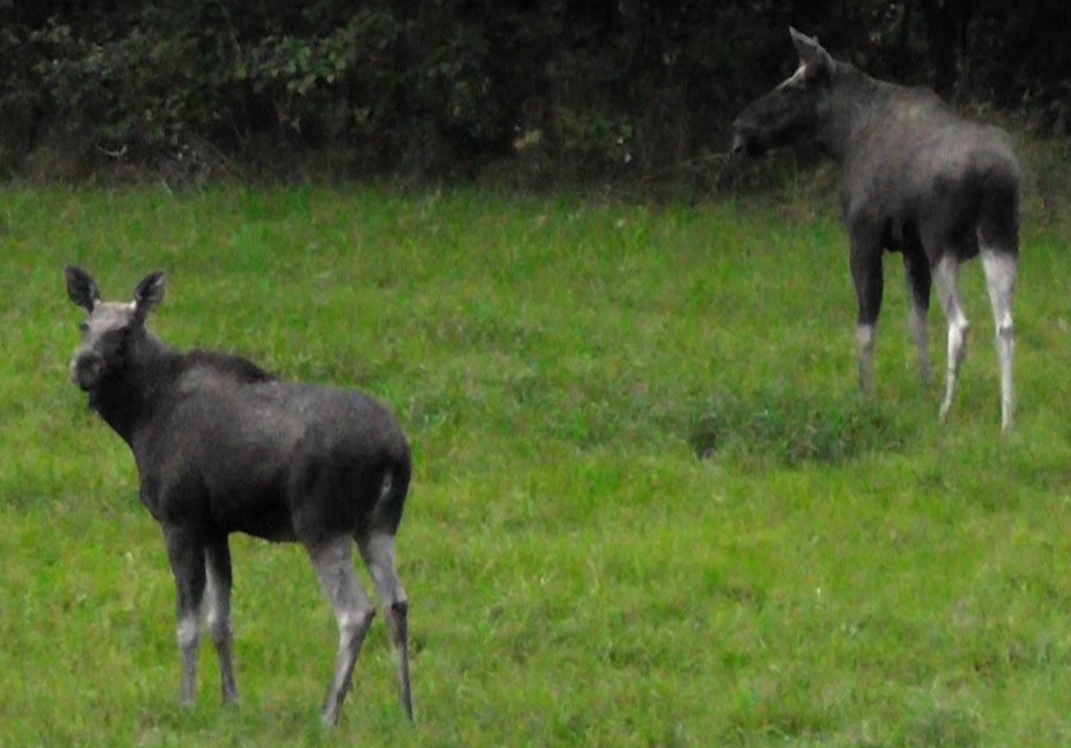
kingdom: Animalia
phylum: Chordata
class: Mammalia
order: Artiodactyla
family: Cervidae
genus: Alces
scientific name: Alces alces
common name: Moose
